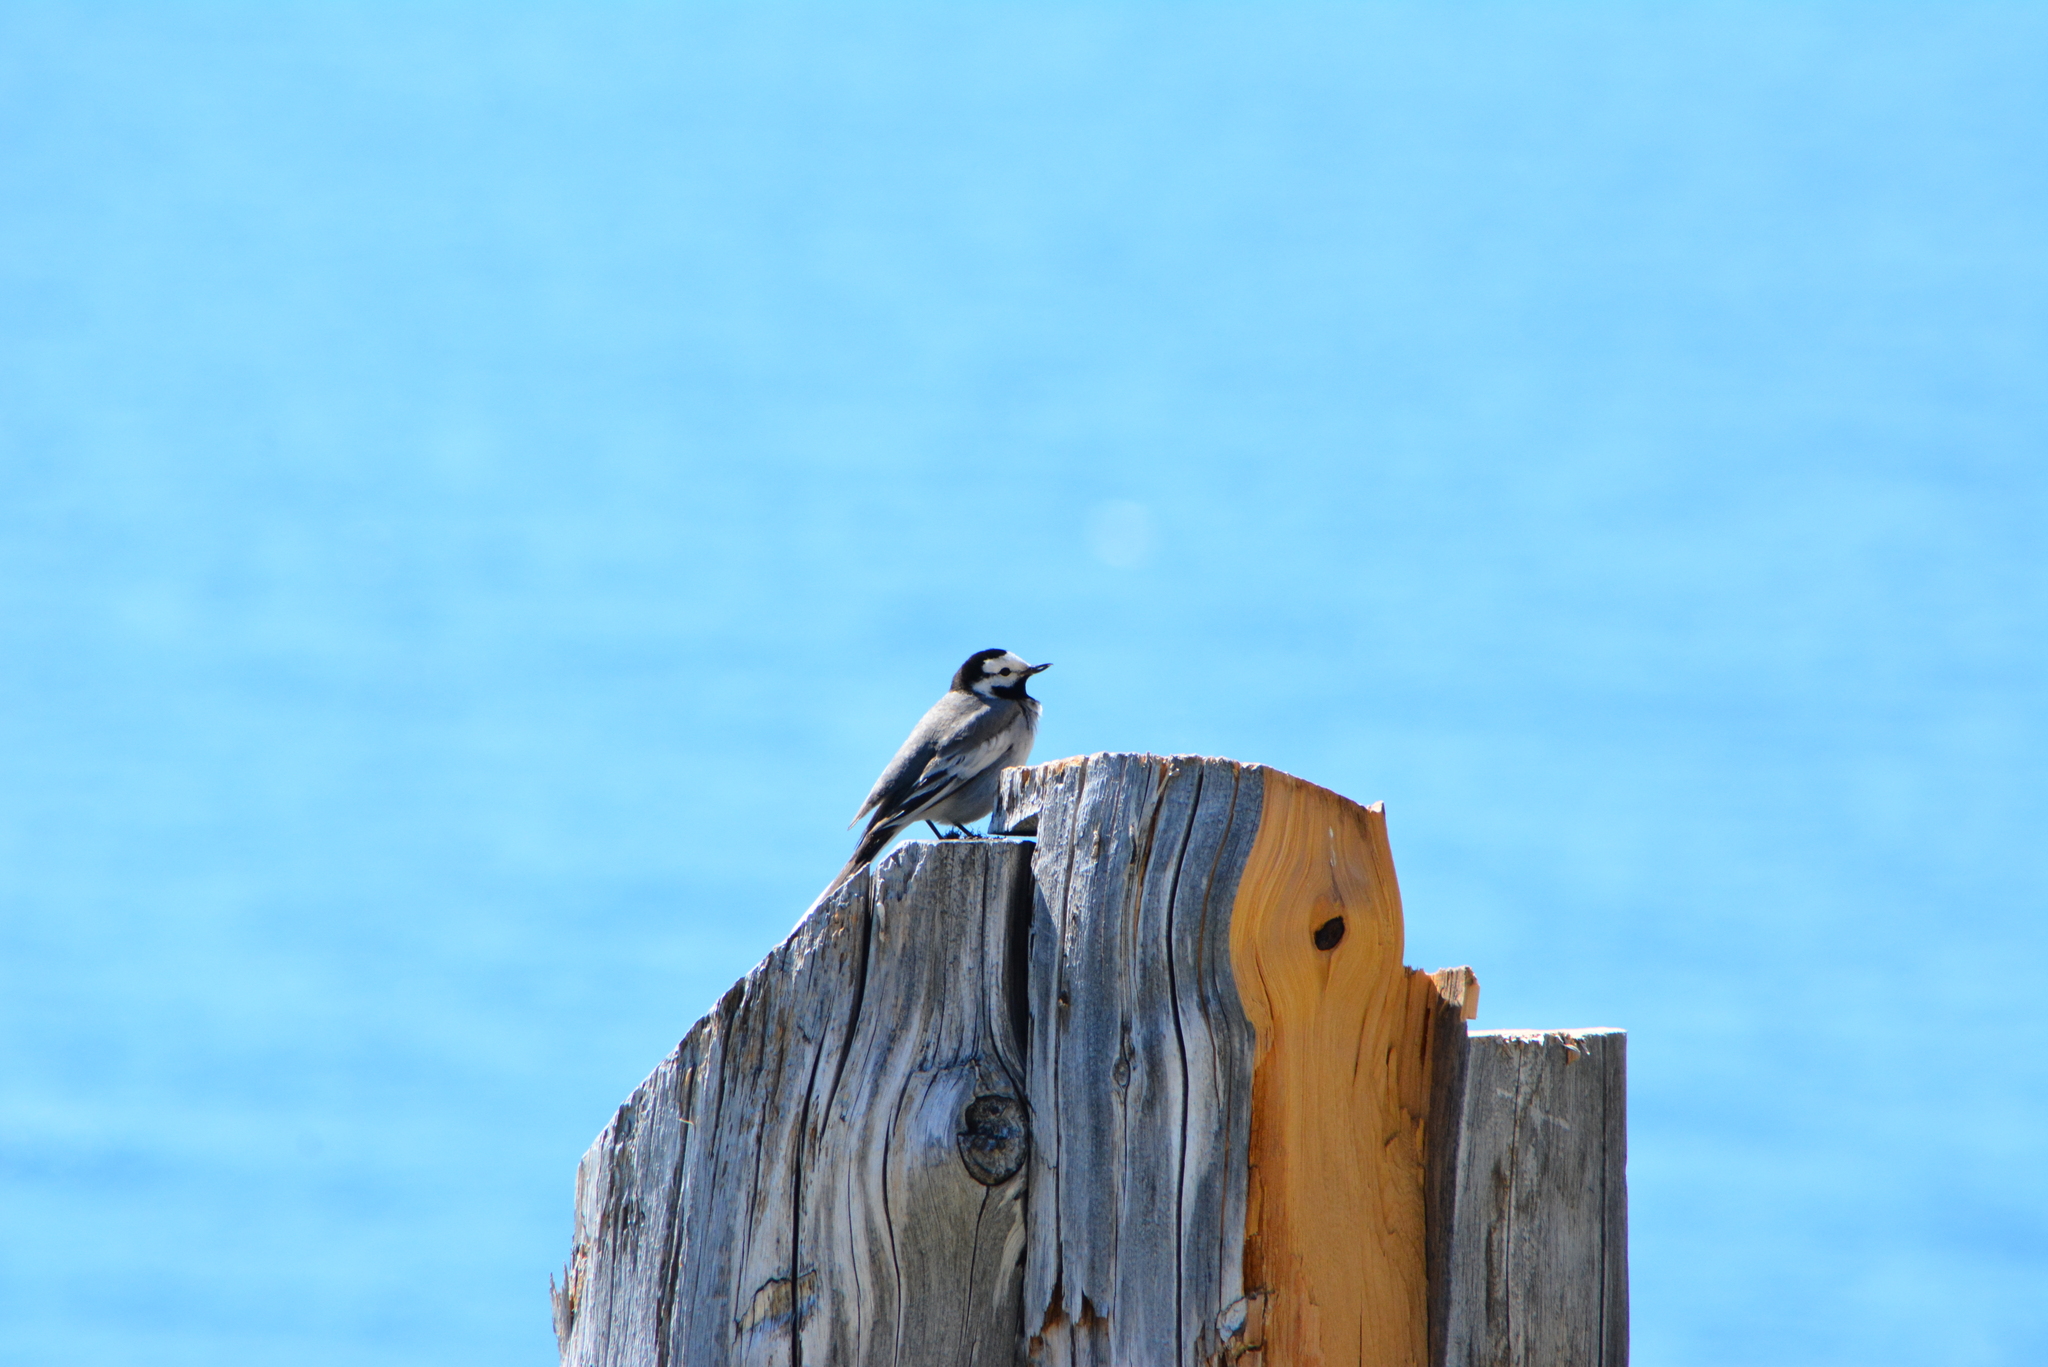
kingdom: Animalia
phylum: Chordata
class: Aves
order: Passeriformes
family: Motacillidae
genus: Motacilla
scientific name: Motacilla alba
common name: White wagtail
